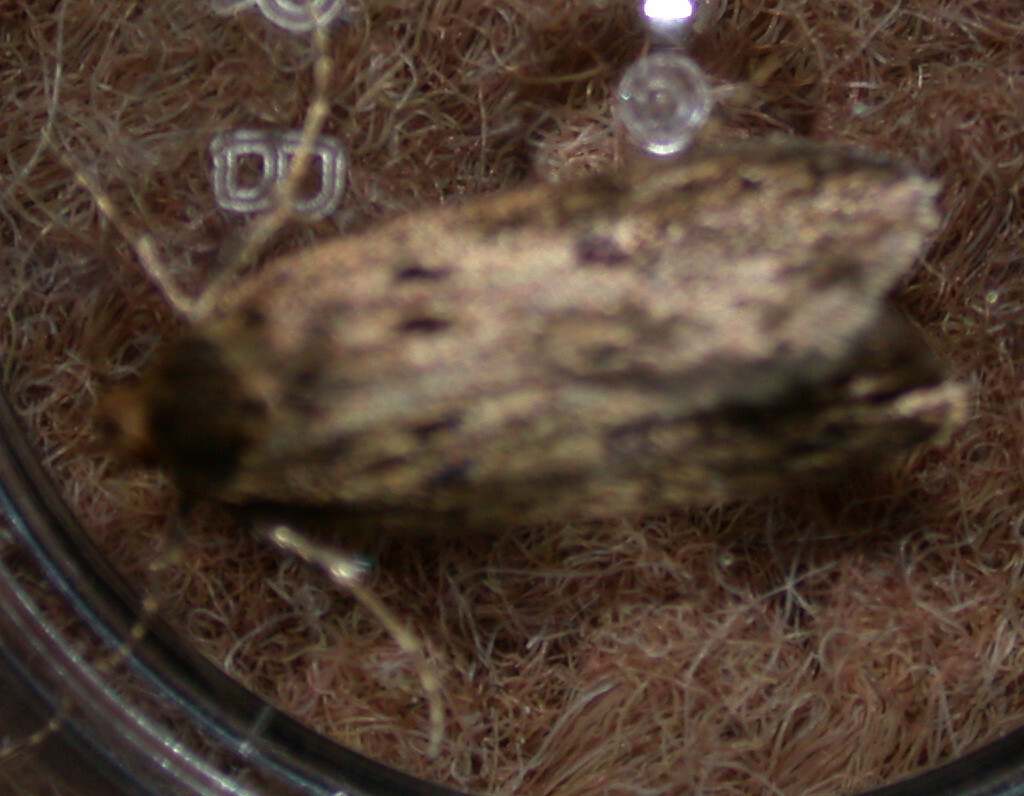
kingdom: Animalia
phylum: Arthropoda
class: Insecta
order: Lepidoptera
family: Oecophoridae
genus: Hofmannophila
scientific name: Hofmannophila pseudospretella
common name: Brown house moth
